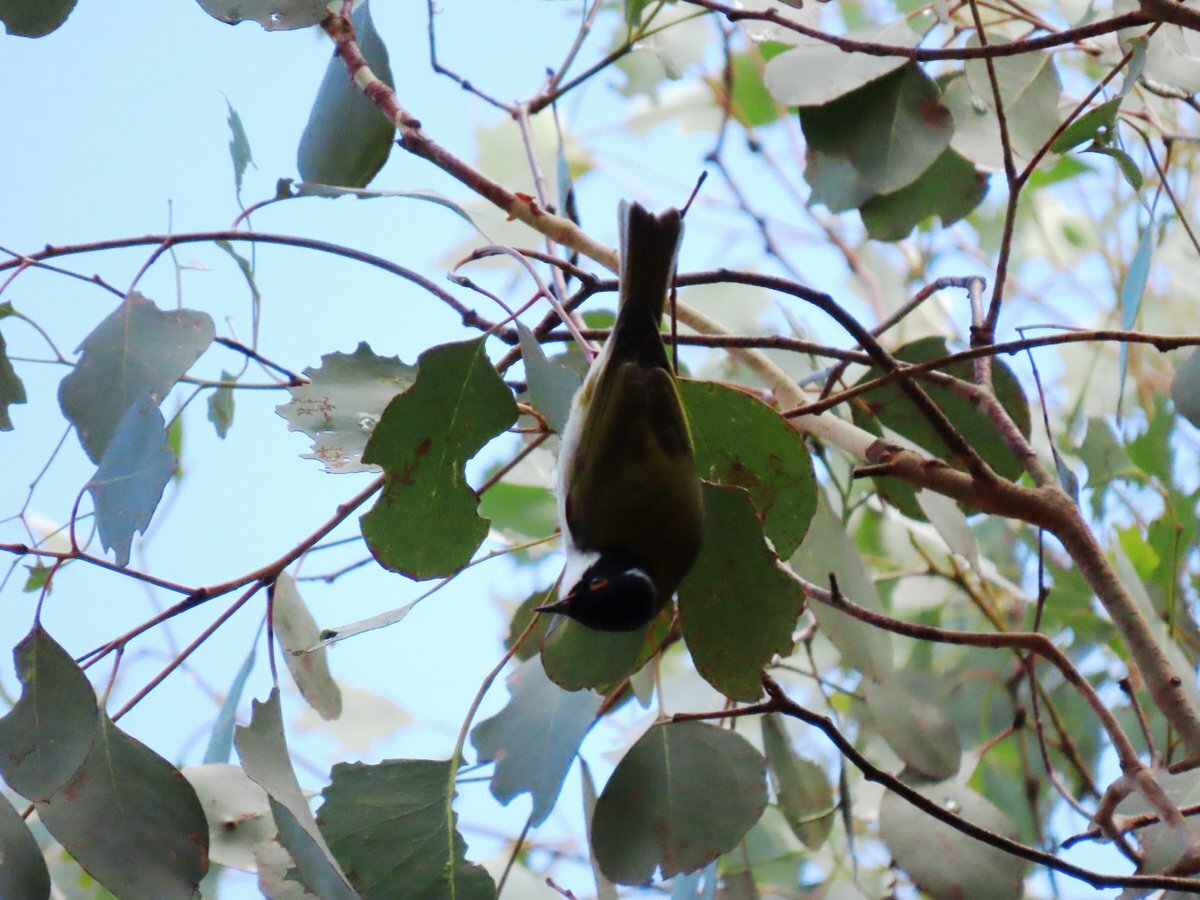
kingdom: Animalia
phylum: Chordata
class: Aves
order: Passeriformes
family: Meliphagidae
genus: Melithreptus
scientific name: Melithreptus lunatus
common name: White-naped honeyeater
